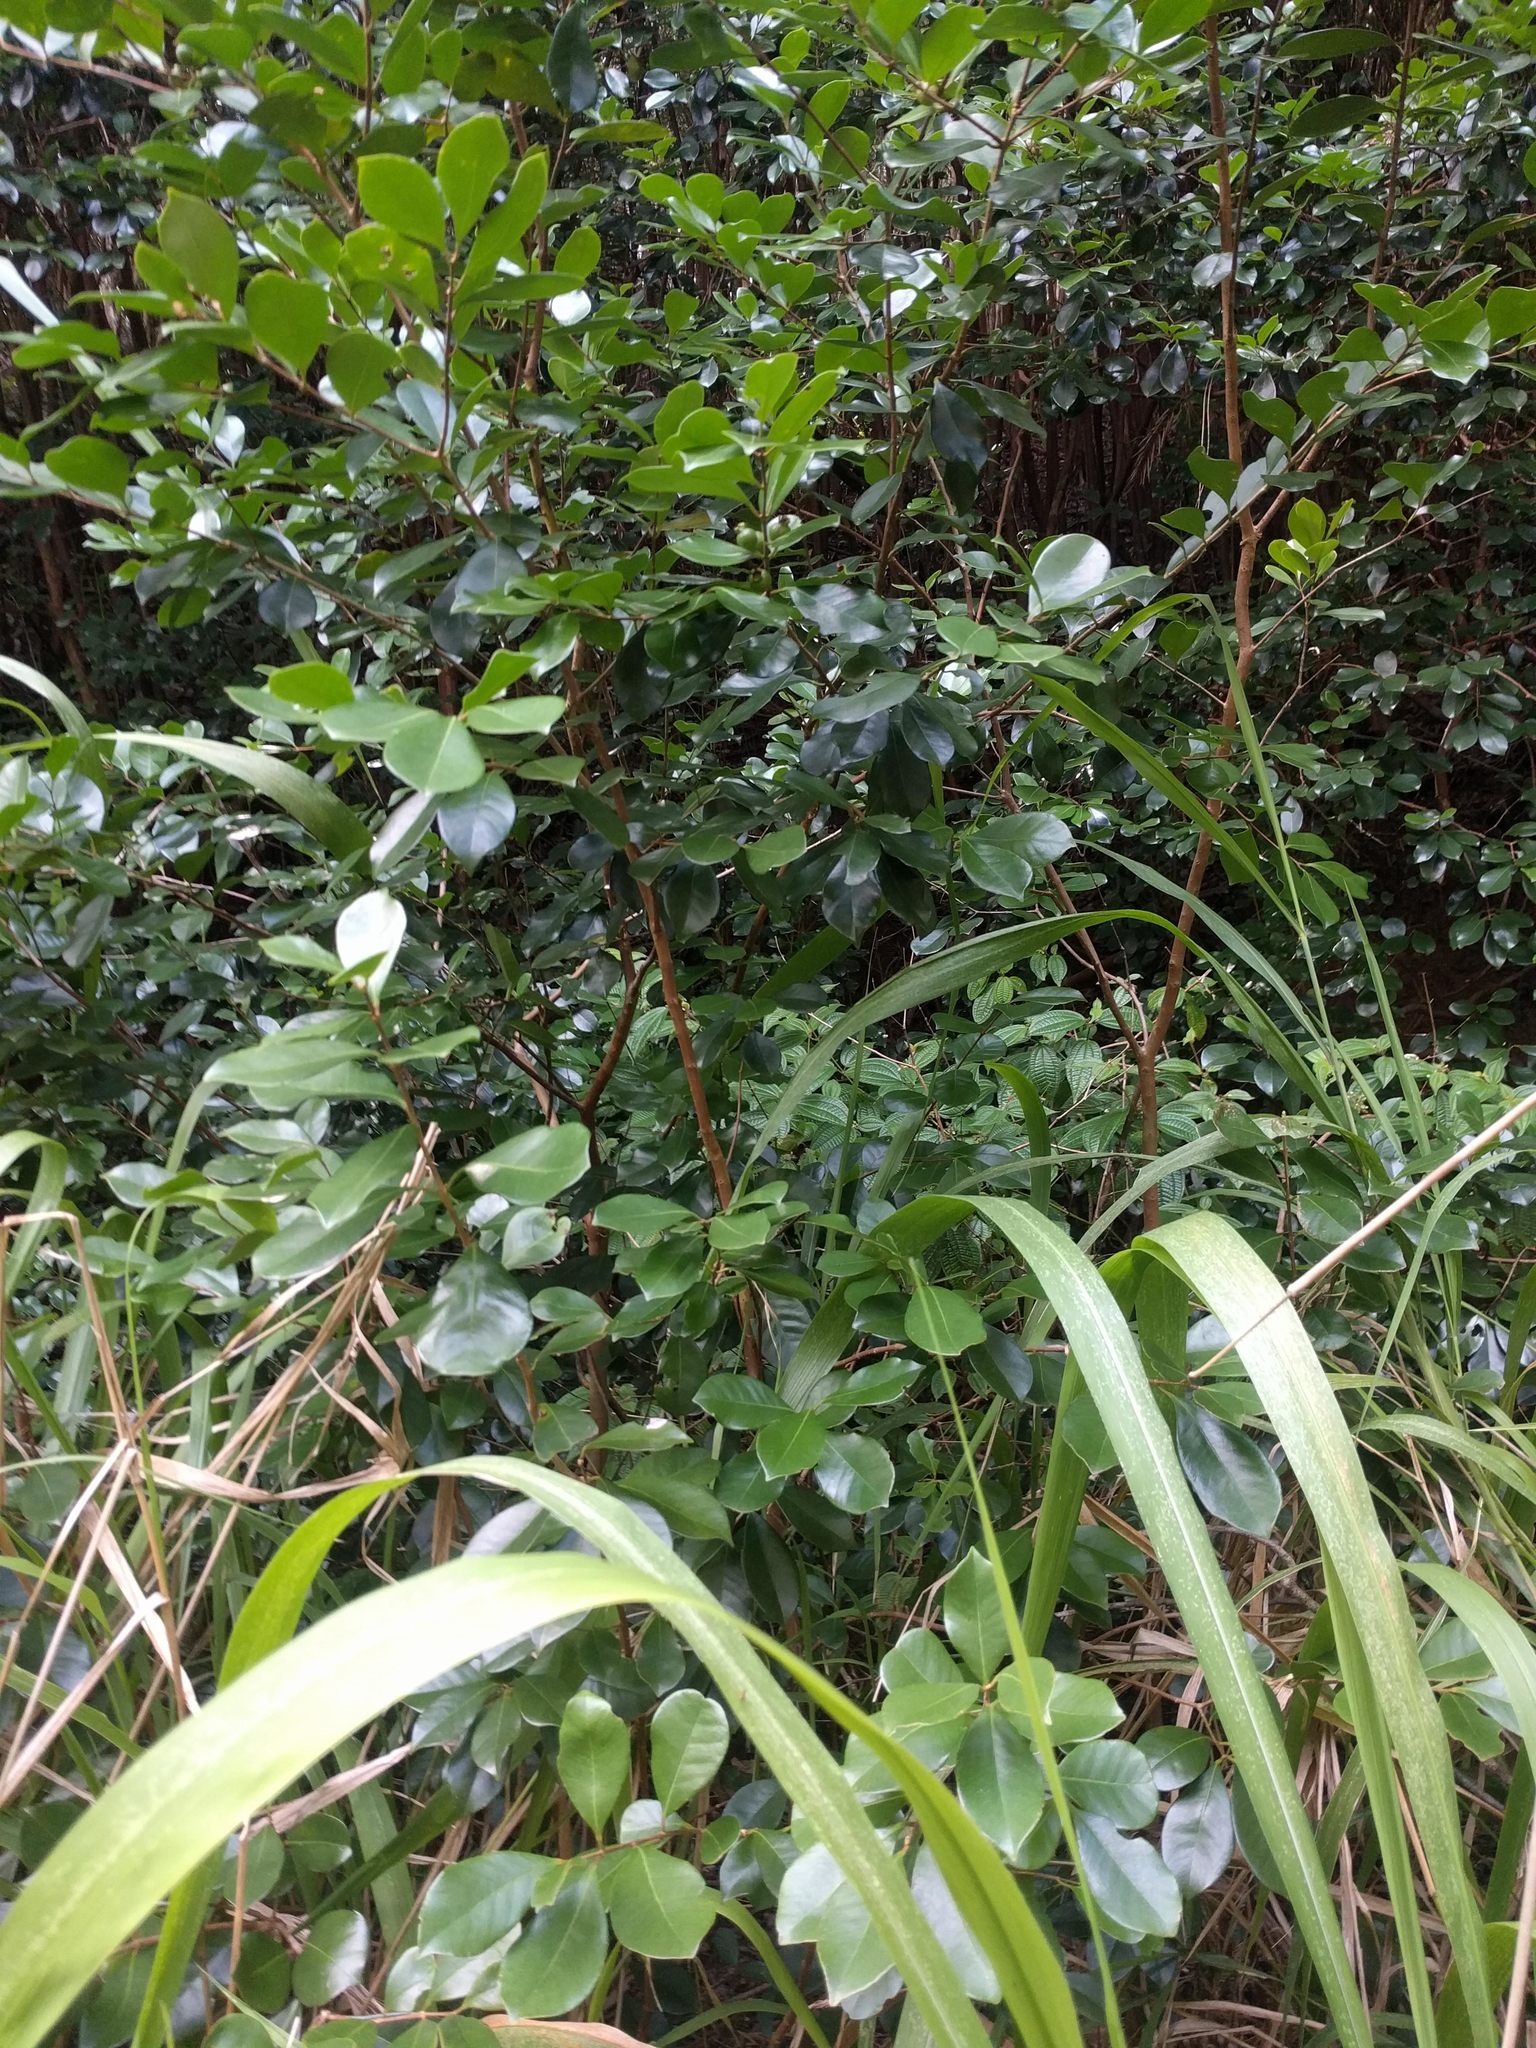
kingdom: Plantae
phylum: Tracheophyta
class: Magnoliopsida
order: Myrtales
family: Myrtaceae
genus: Psidium
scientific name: Psidium cattleianum
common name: Strawberry guava
